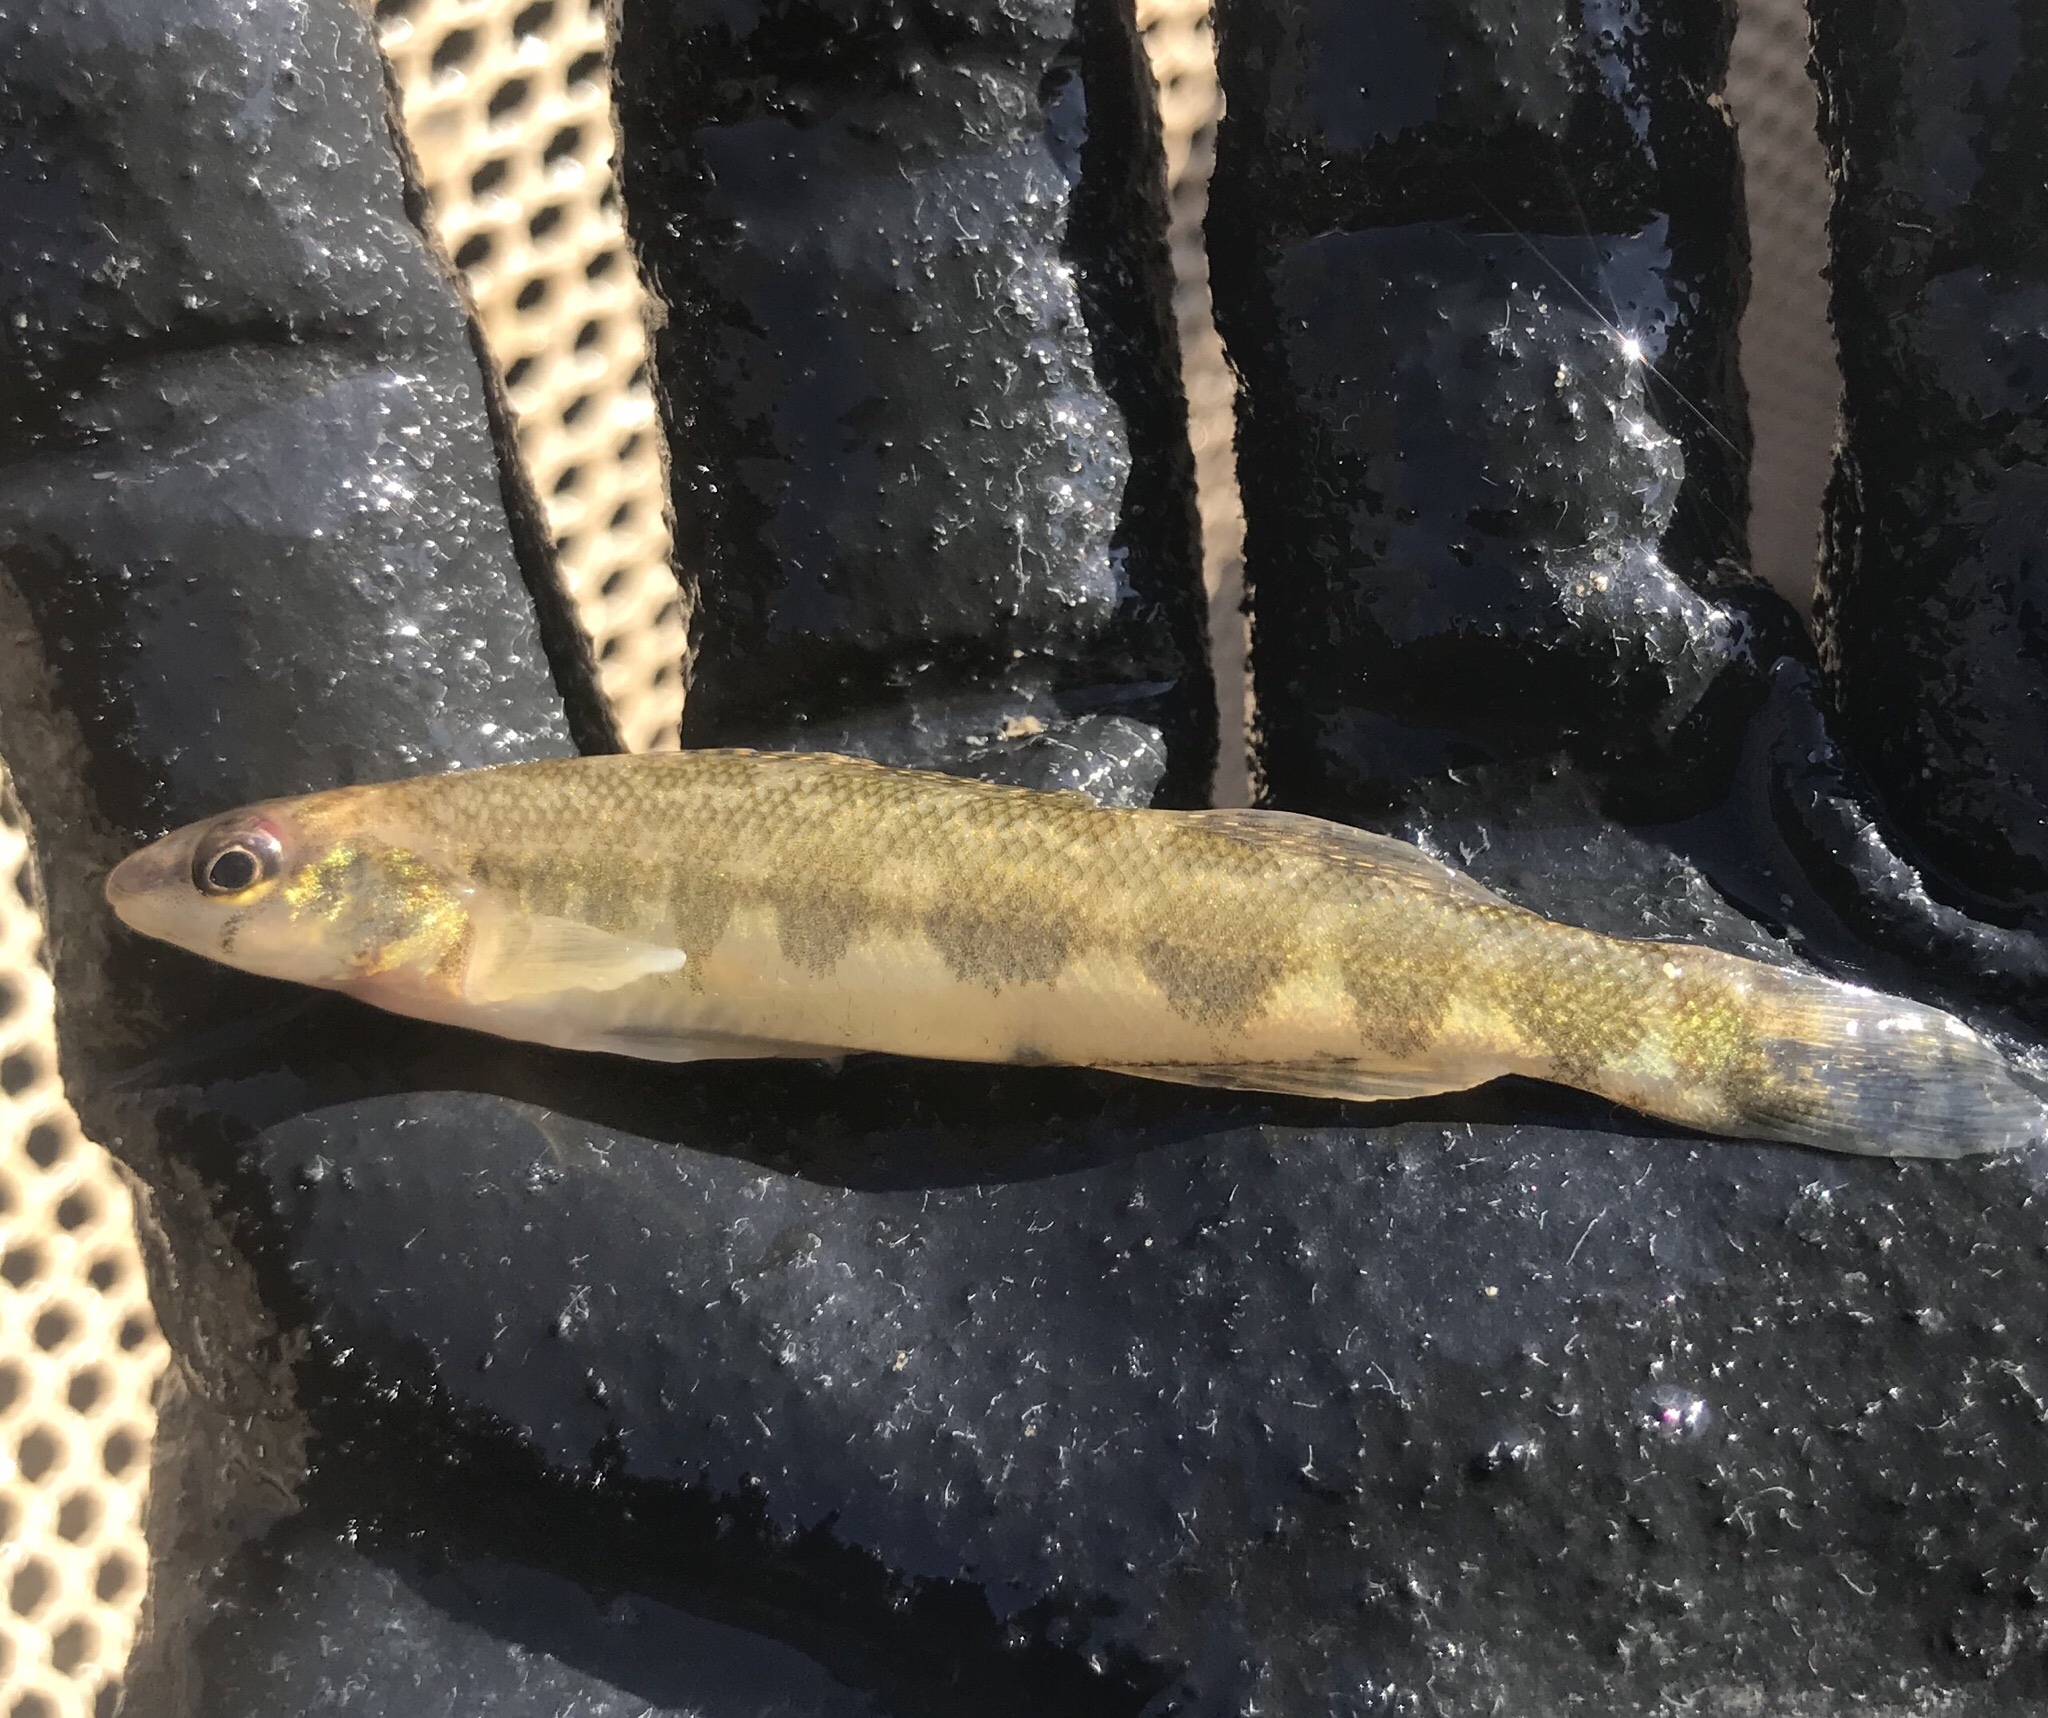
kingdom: Animalia
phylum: Chordata
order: Perciformes
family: Percidae
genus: Percina
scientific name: Percina sciera
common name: Dusky darter
